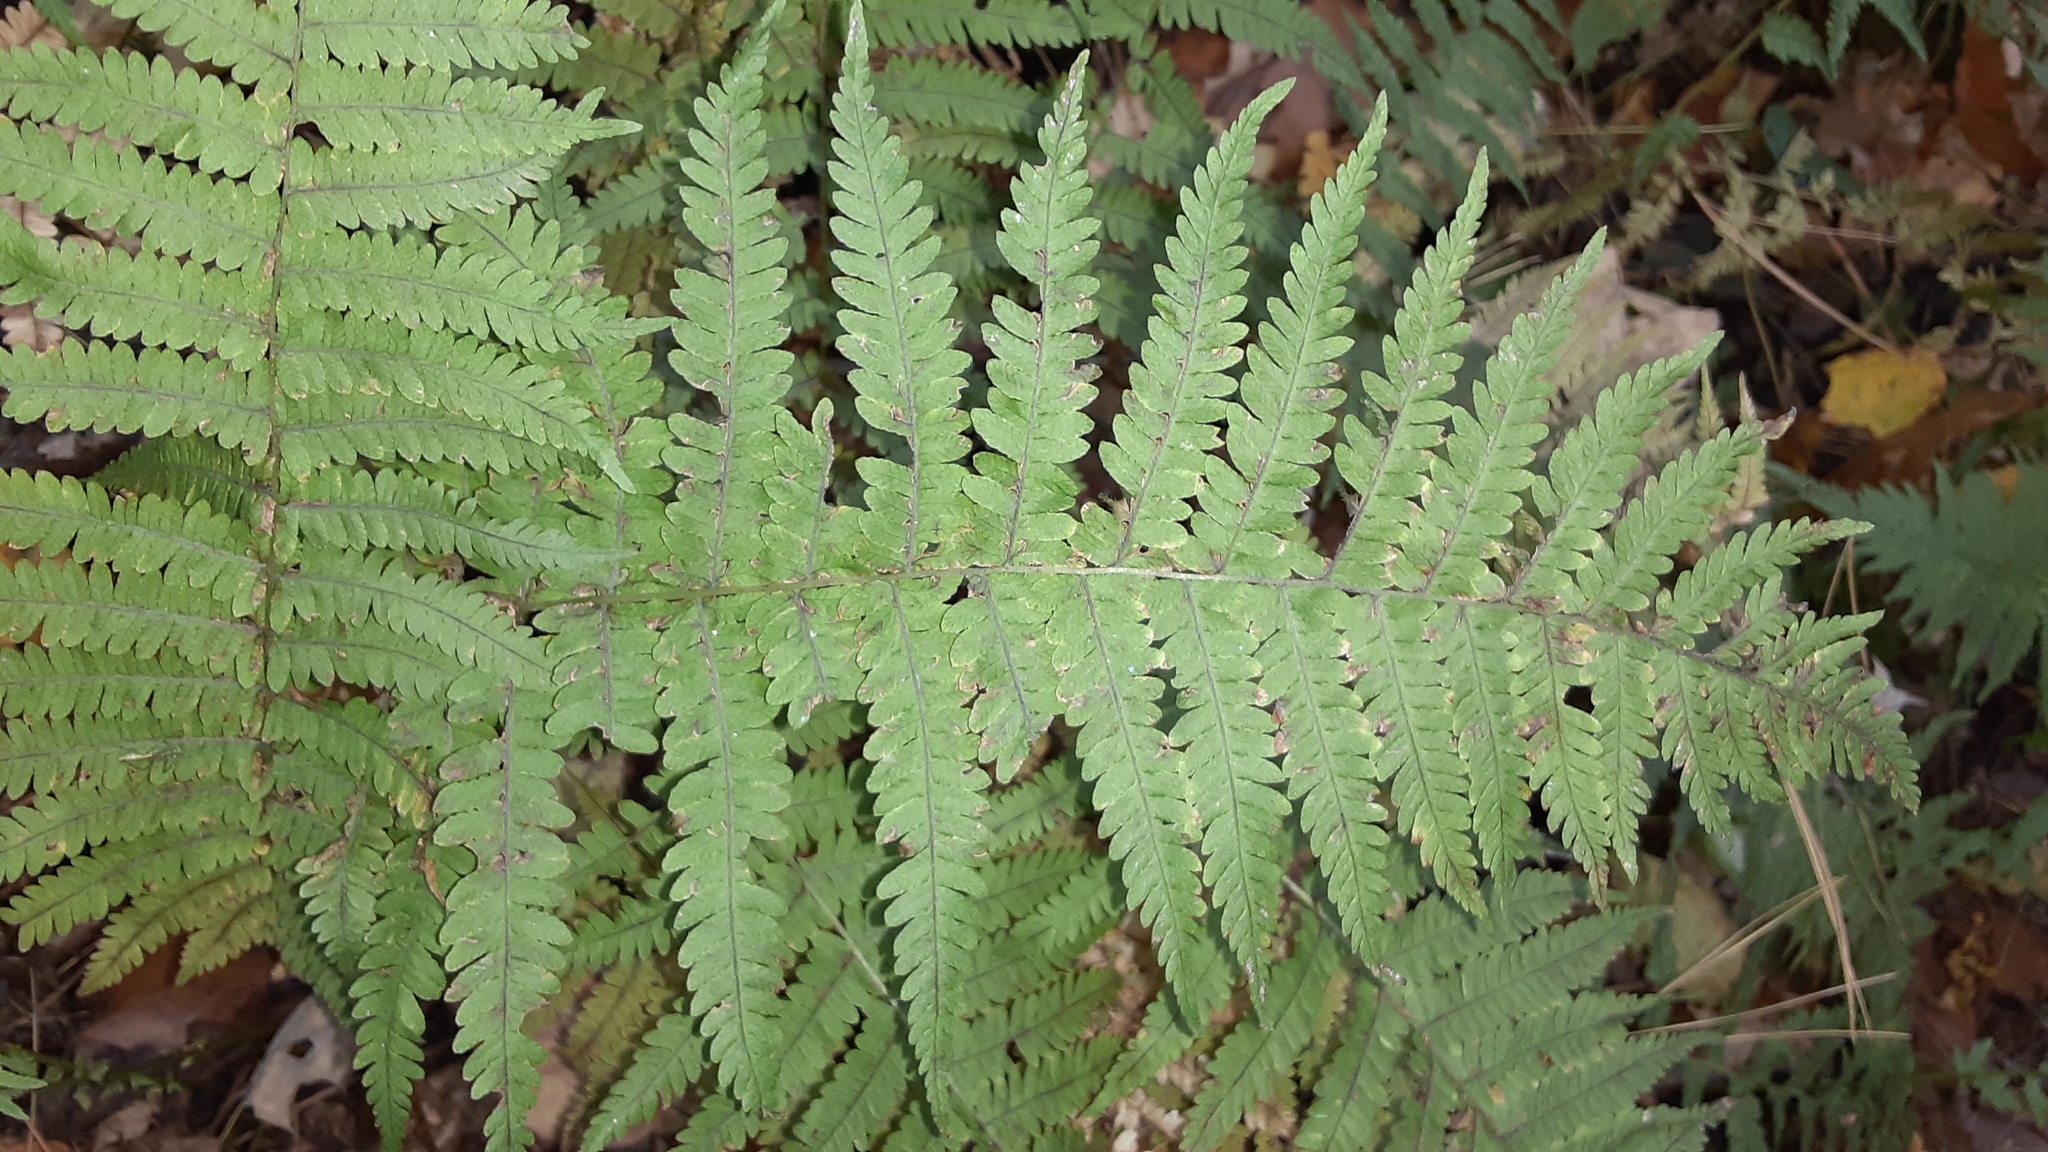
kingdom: Plantae
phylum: Tracheophyta
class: Polypodiopsida
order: Polypodiales
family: Thelypteridaceae
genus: Amauropelta
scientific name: Amauropelta noveboracensis
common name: New york fern
